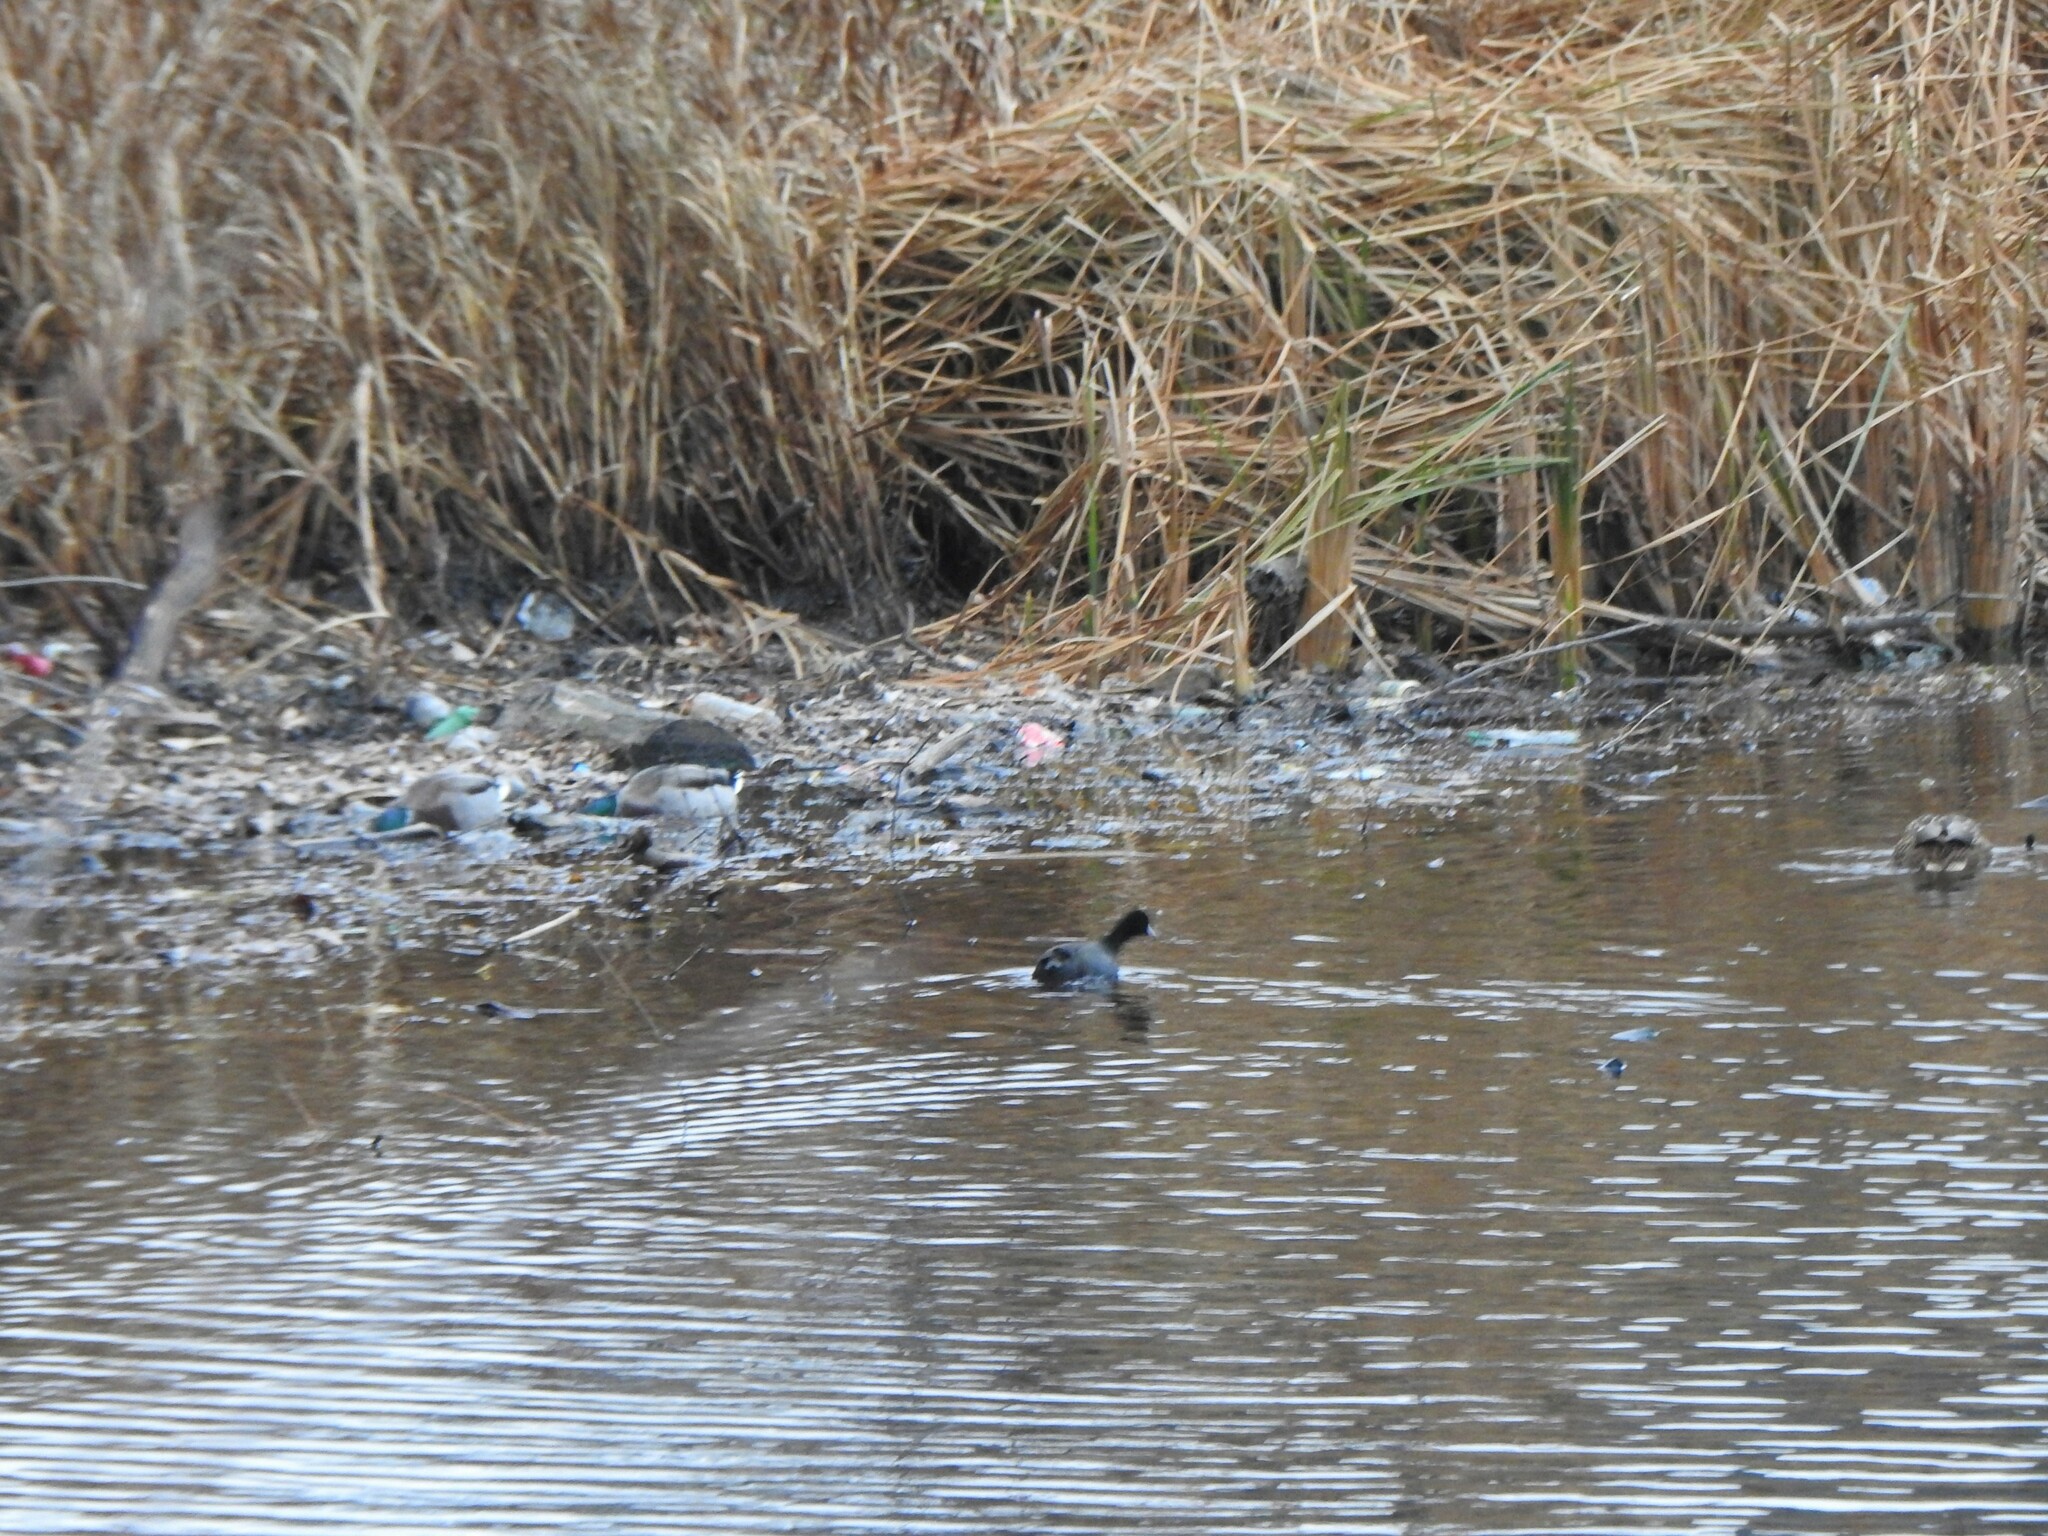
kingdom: Animalia
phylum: Chordata
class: Aves
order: Gruiformes
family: Rallidae
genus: Fulica
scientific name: Fulica americana
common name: American coot
